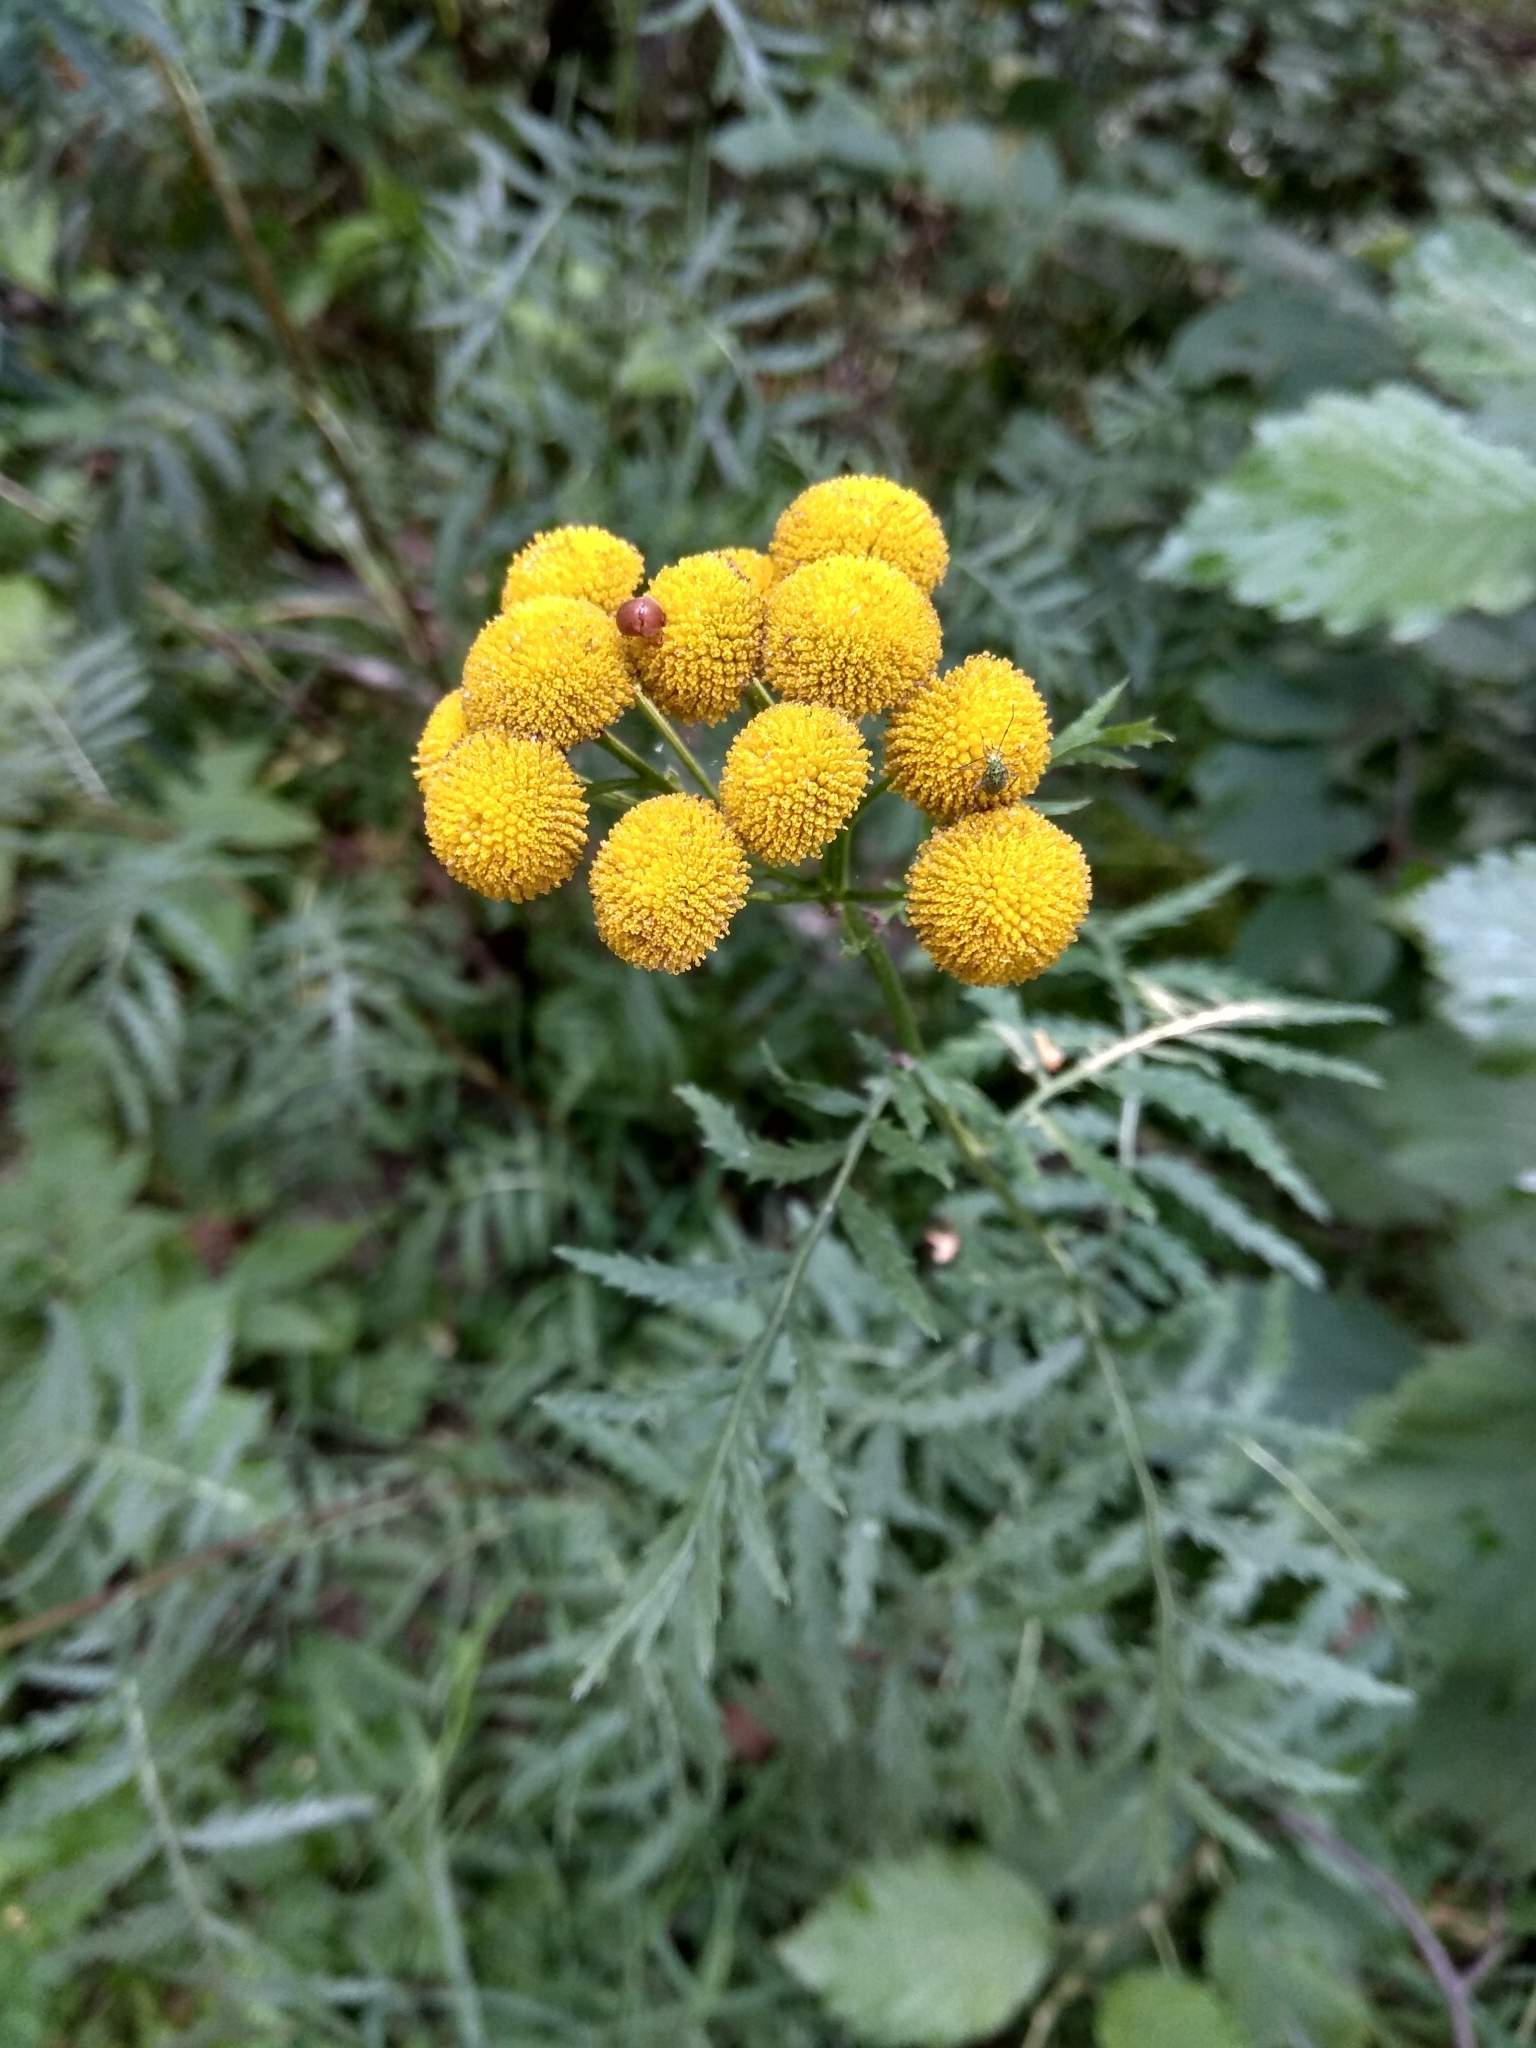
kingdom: Plantae
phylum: Tracheophyta
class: Magnoliopsida
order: Asterales
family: Asteraceae
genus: Tanacetum
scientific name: Tanacetum vulgare
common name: Common tansy
